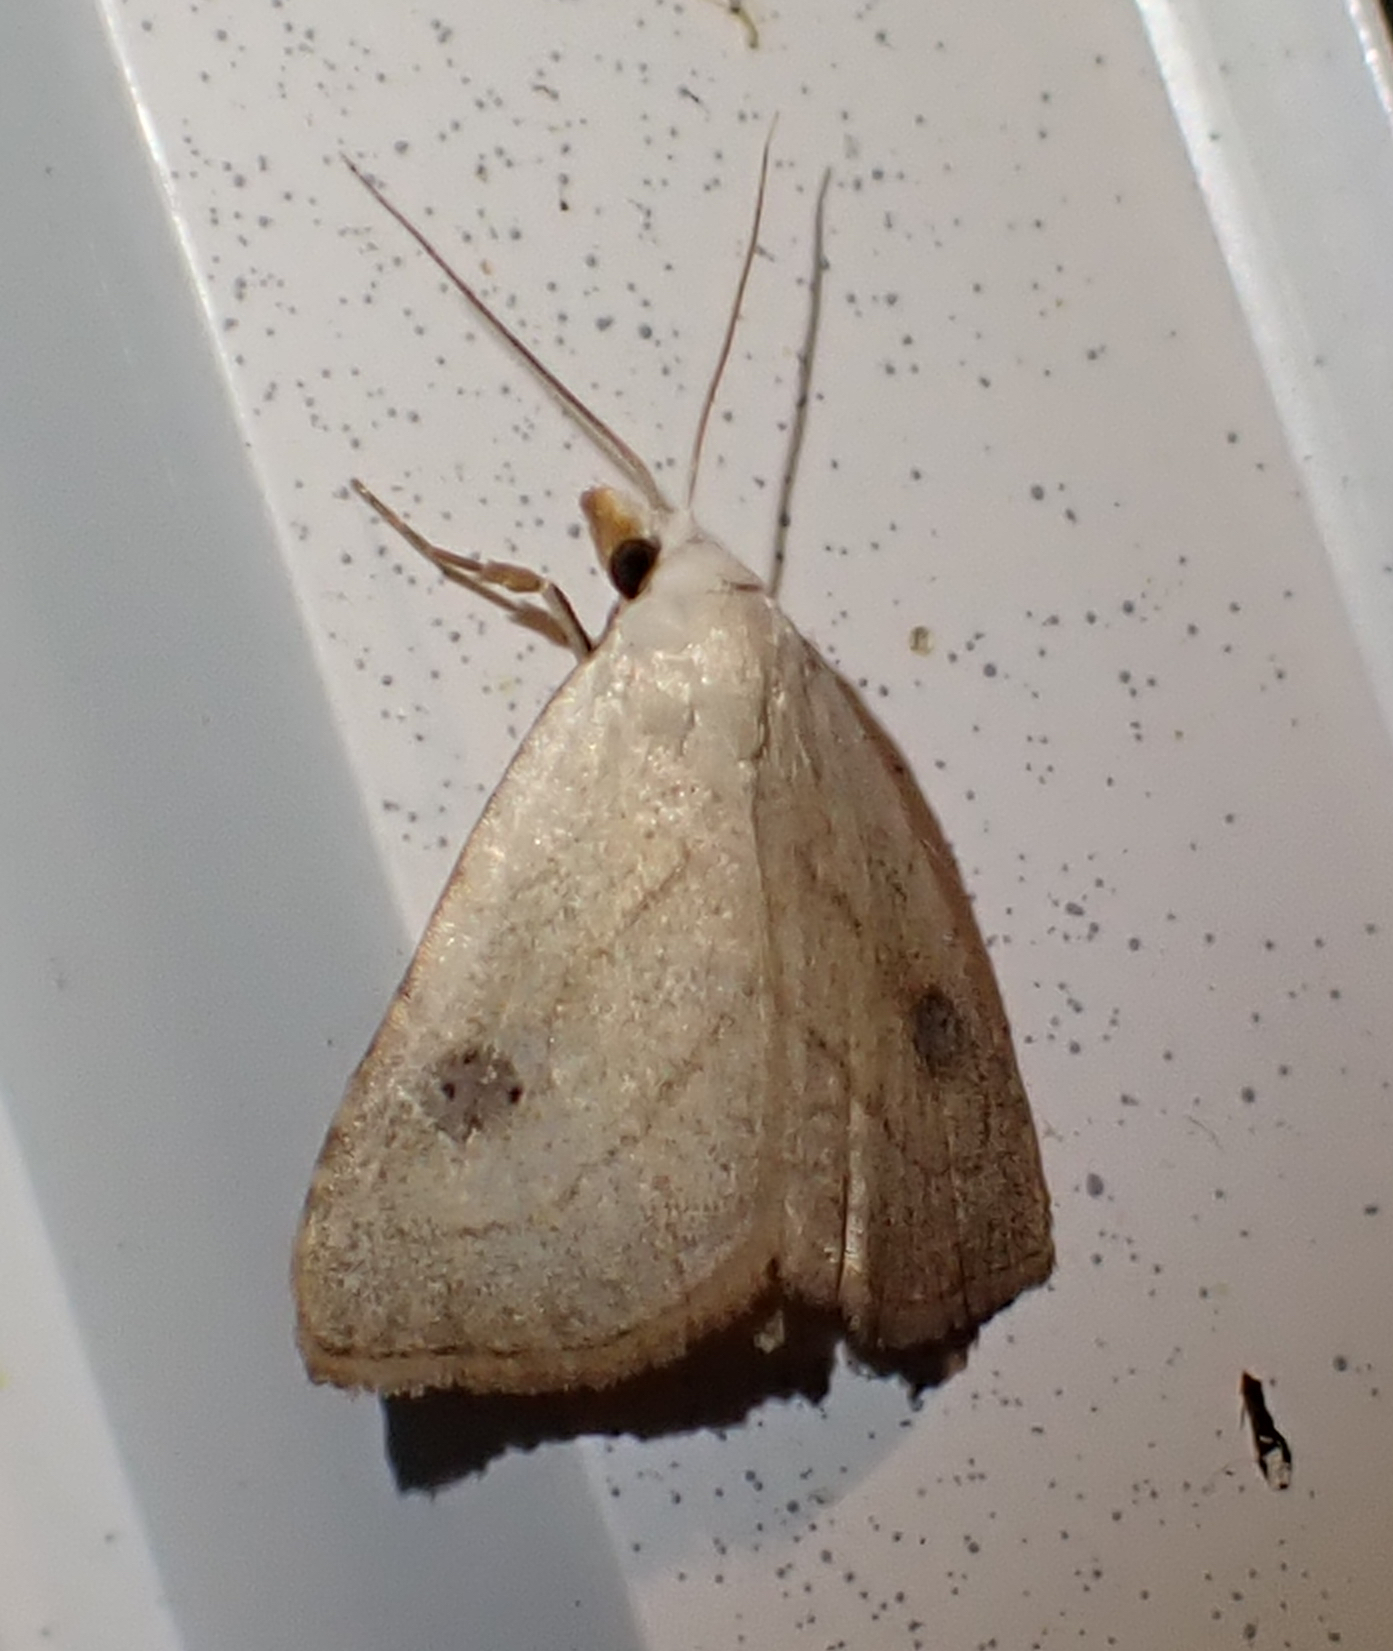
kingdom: Animalia
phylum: Arthropoda
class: Insecta
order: Lepidoptera
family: Erebidae
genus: Rivula
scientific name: Rivula propinqualis
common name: Spotted grass moth
